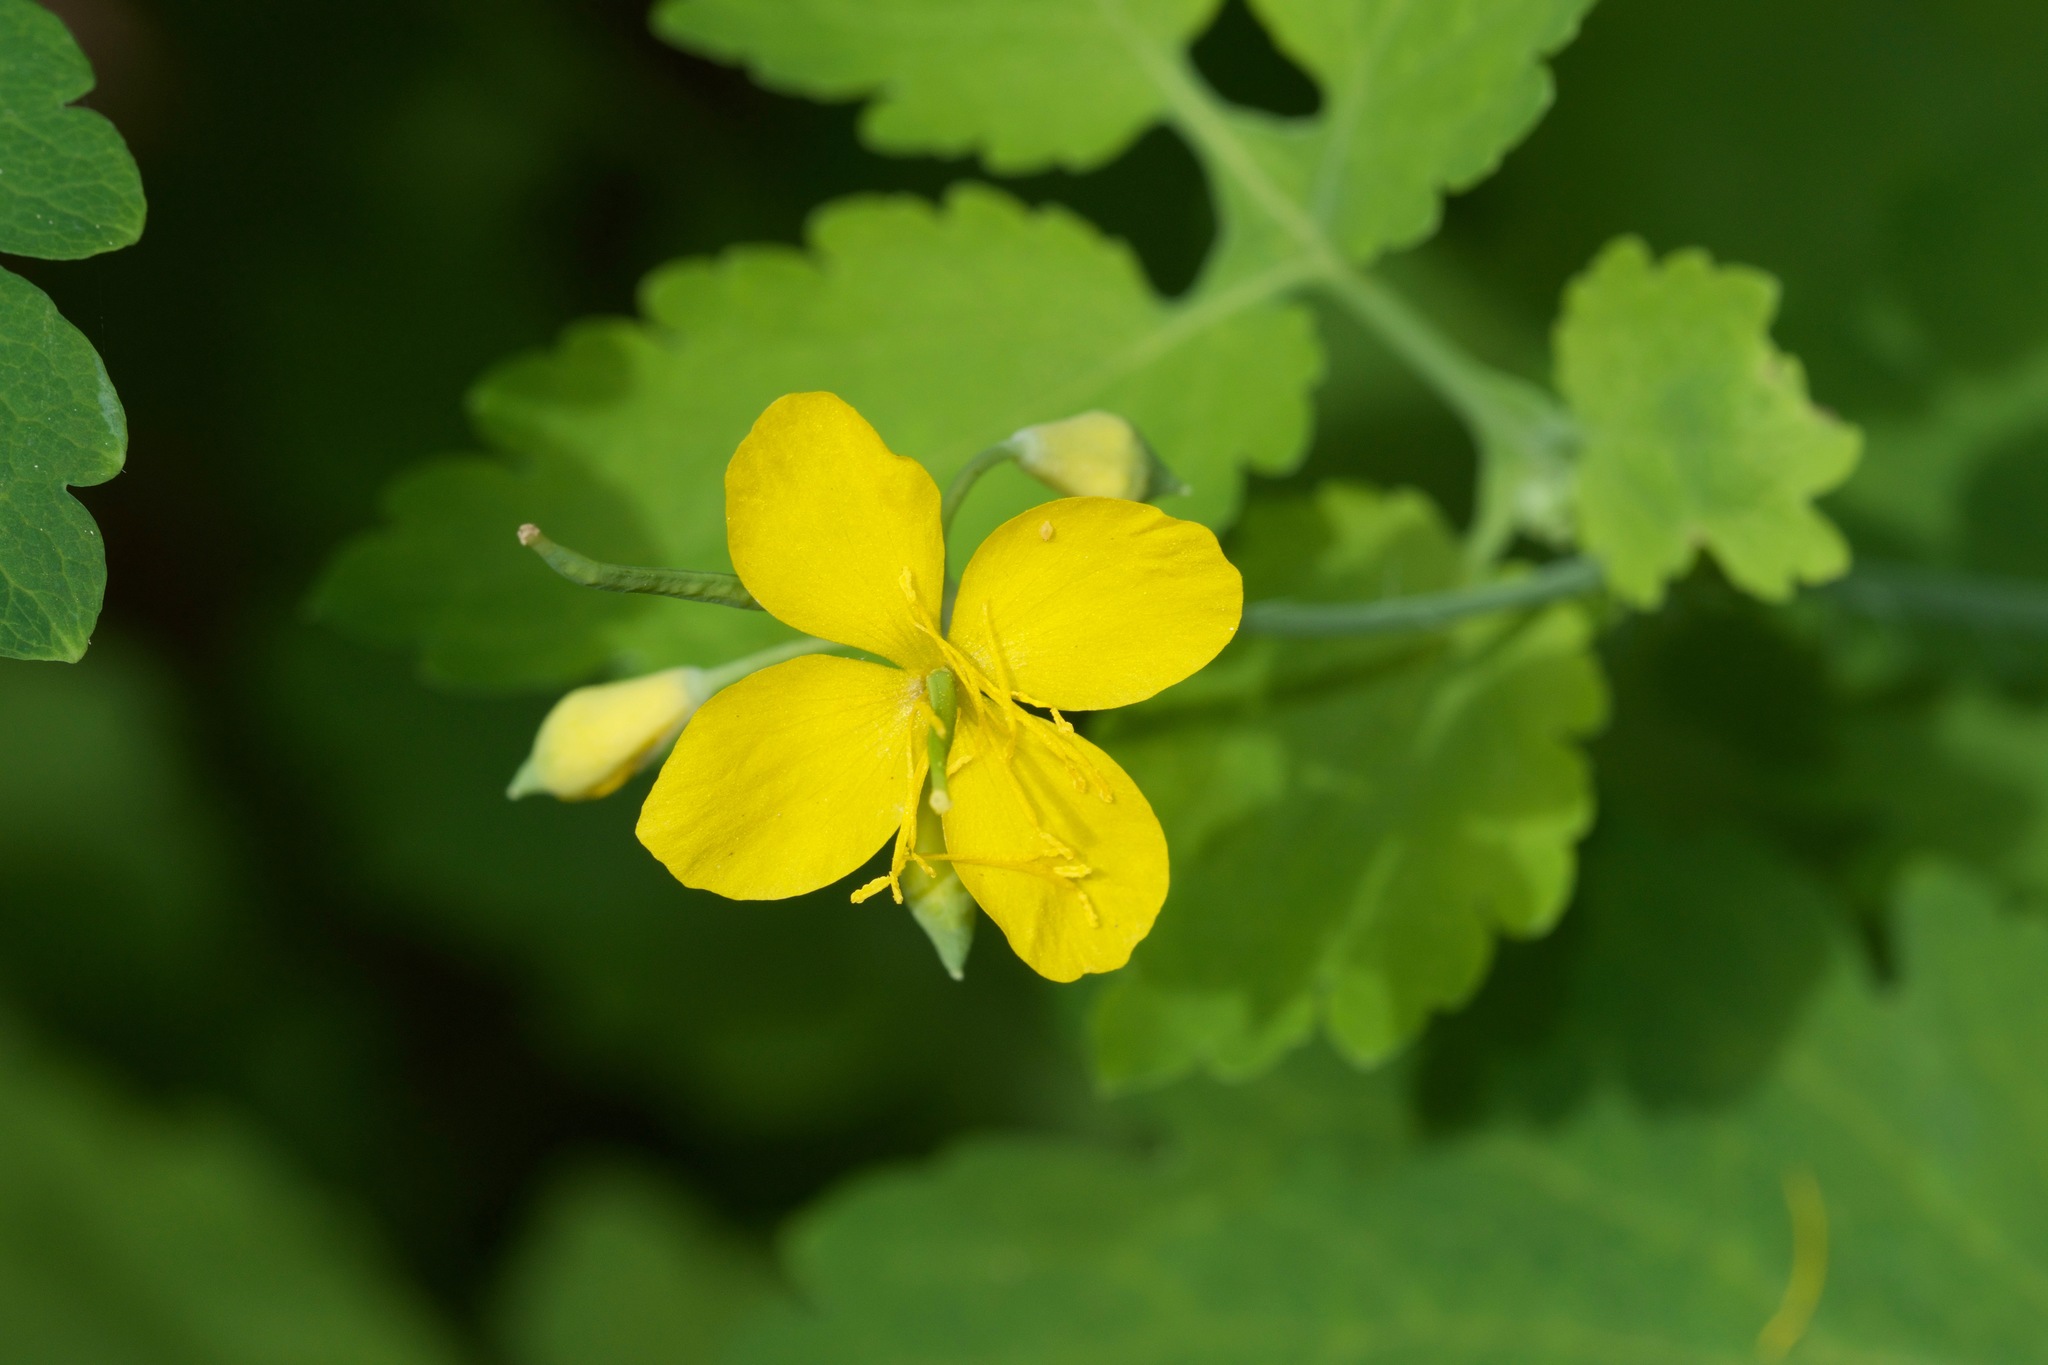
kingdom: Plantae
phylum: Tracheophyta
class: Magnoliopsida
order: Ranunculales
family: Papaveraceae
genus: Chelidonium
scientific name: Chelidonium majus
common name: Greater celandine
